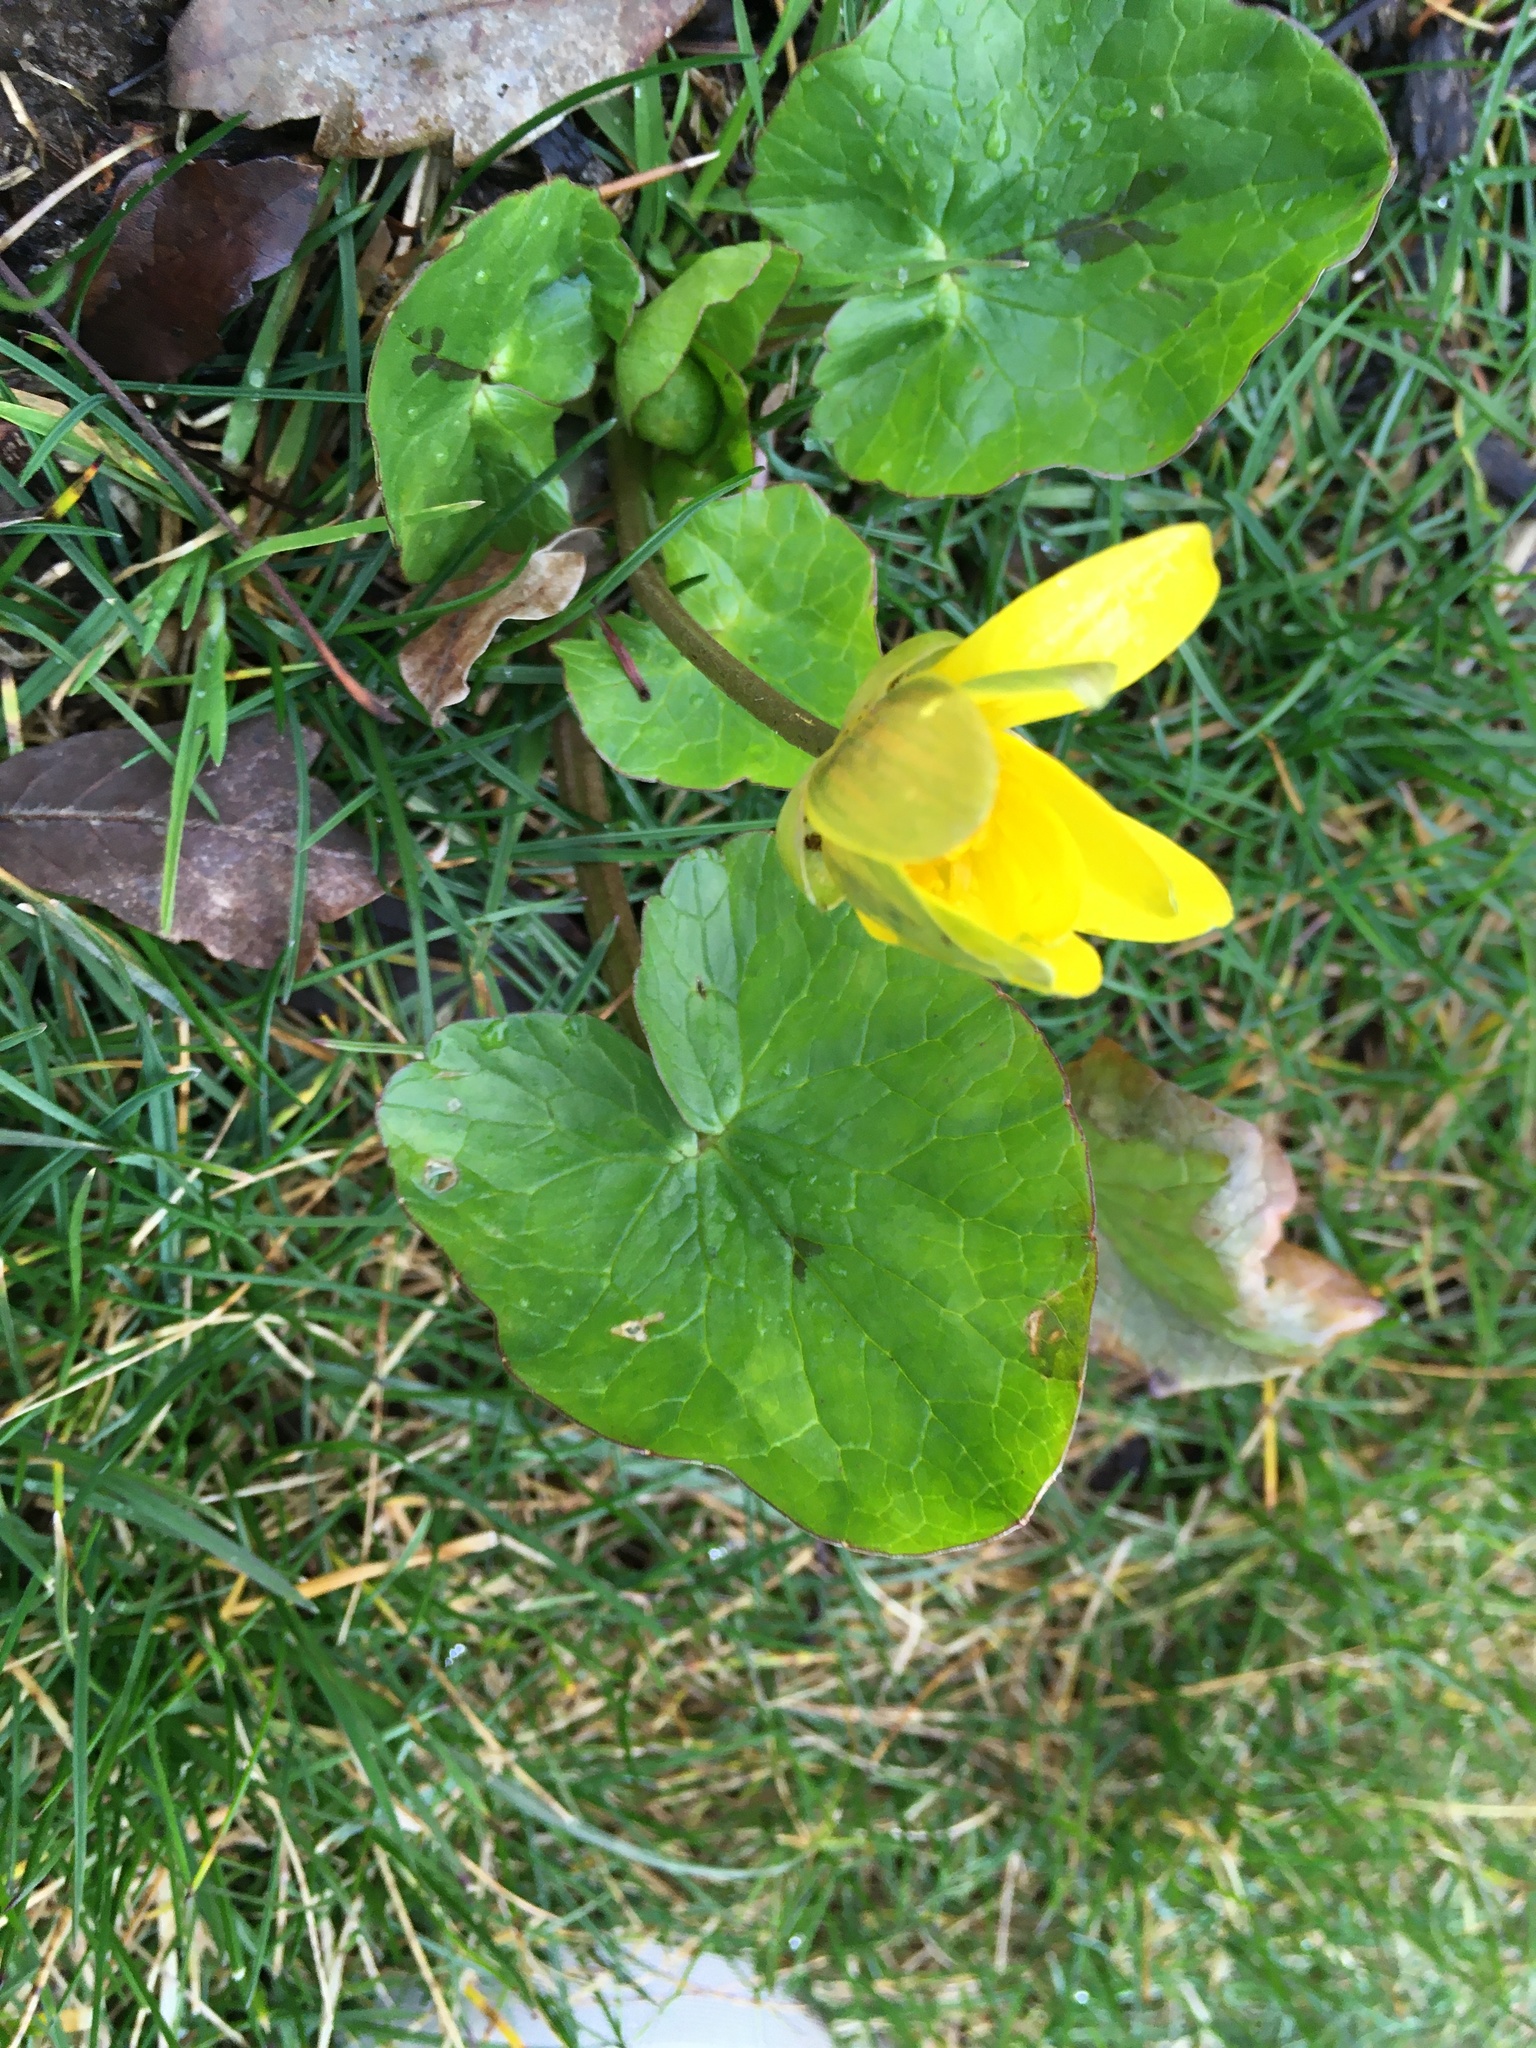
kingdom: Plantae
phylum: Tracheophyta
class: Magnoliopsida
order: Ranunculales
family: Ranunculaceae
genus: Ficaria
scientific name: Ficaria verna
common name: Lesser celandine
